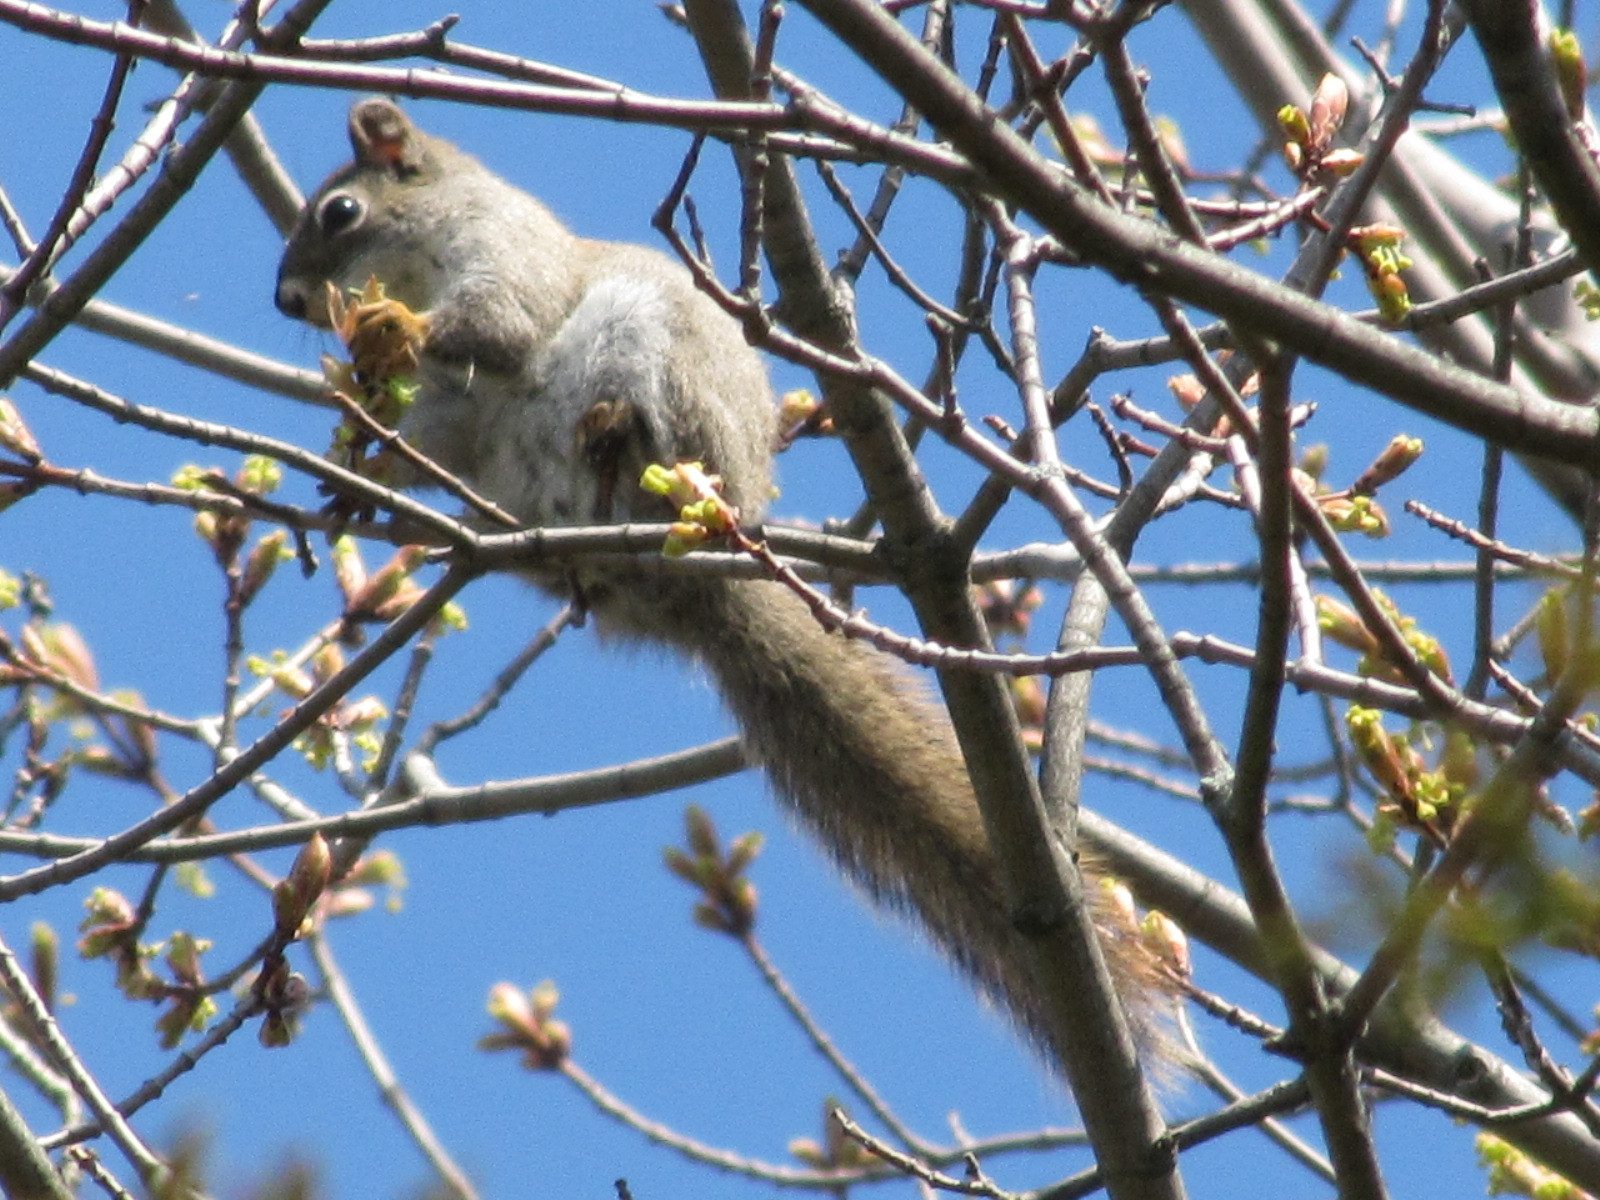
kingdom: Animalia
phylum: Chordata
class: Mammalia
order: Rodentia
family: Sciuridae
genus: Tamiasciurus
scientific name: Tamiasciurus hudsonicus
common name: Red squirrel
